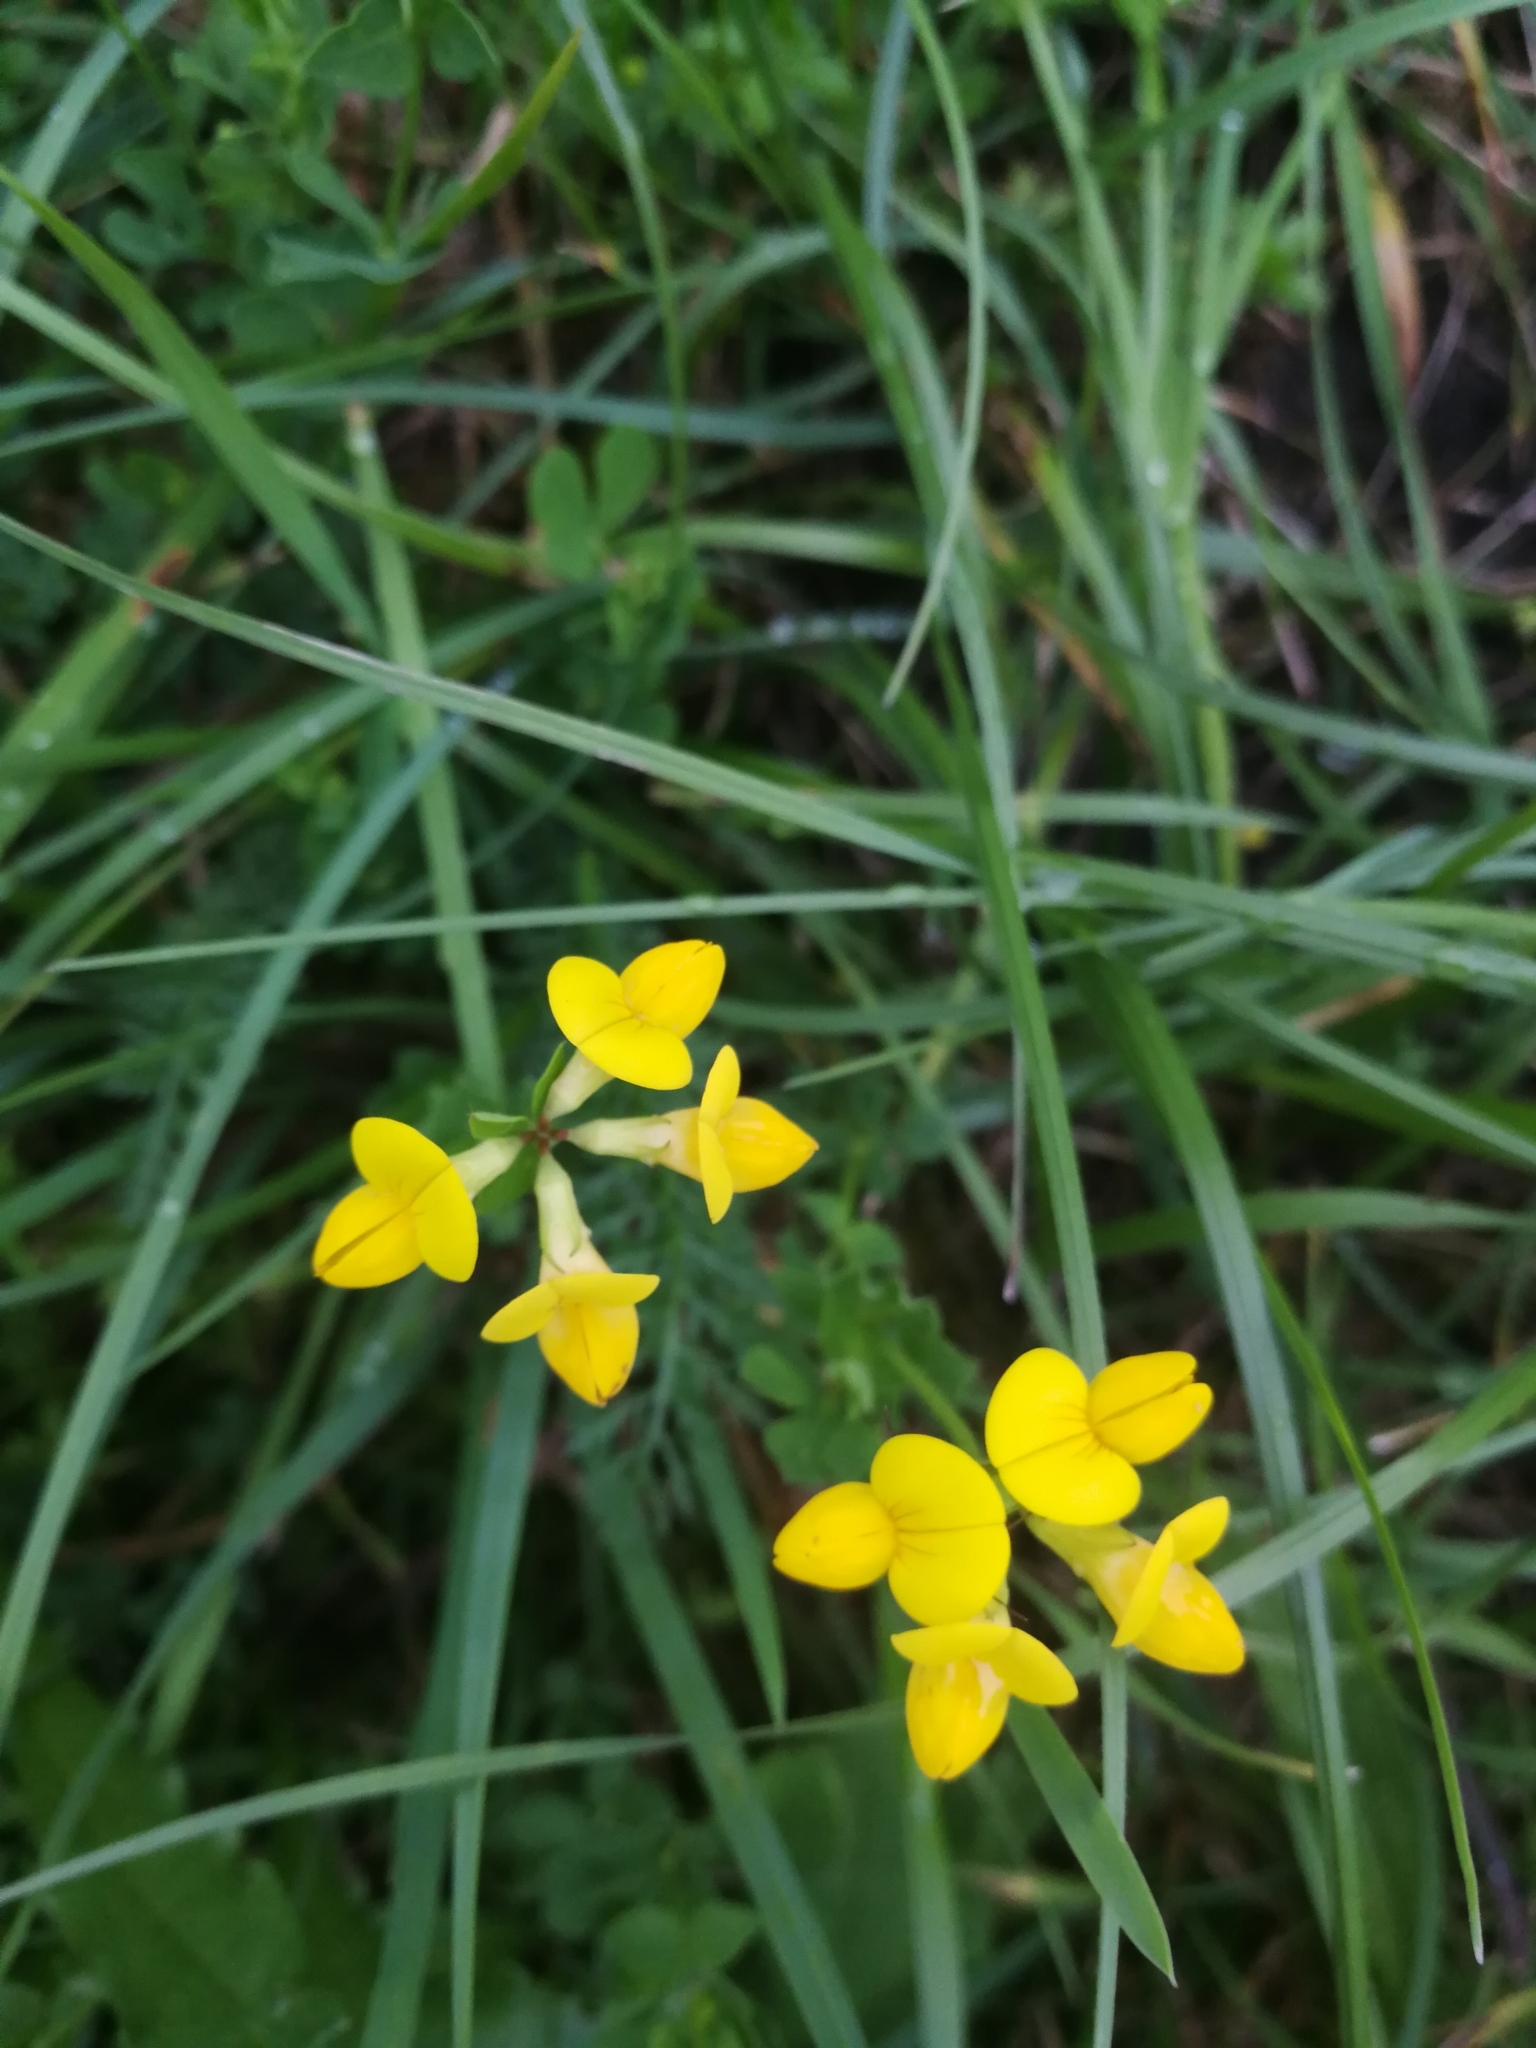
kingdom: Plantae
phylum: Tracheophyta
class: Magnoliopsida
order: Fabales
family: Fabaceae
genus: Lotus
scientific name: Lotus corniculatus
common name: Common bird's-foot-trefoil
